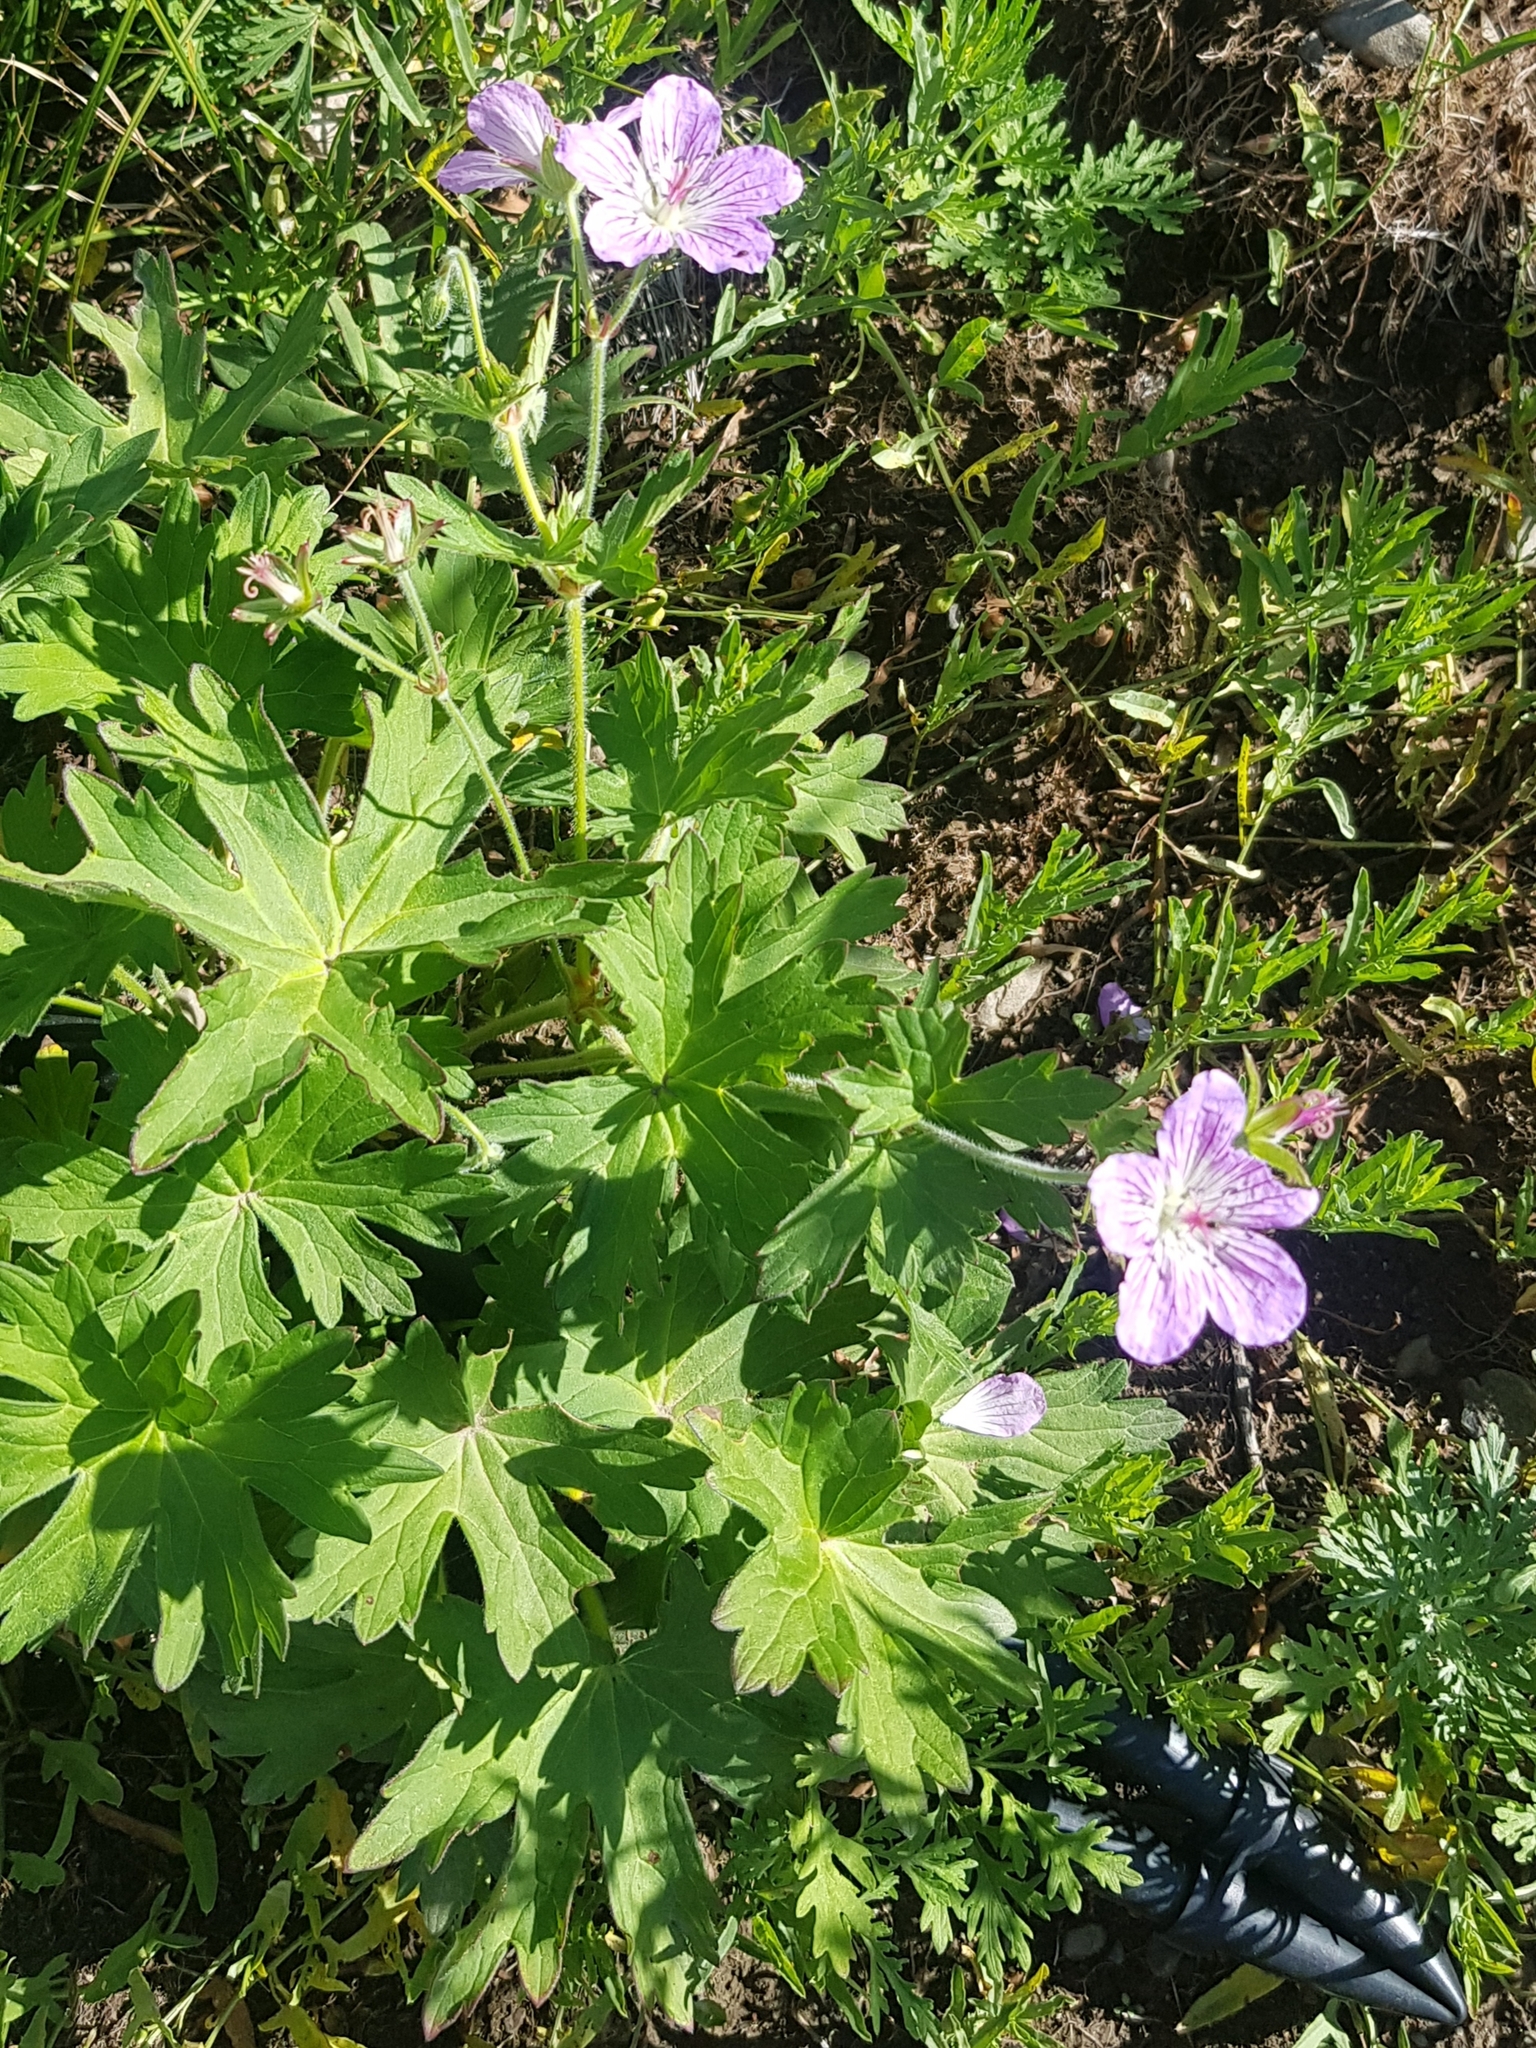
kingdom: Plantae
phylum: Tracheophyta
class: Magnoliopsida
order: Geraniales
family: Geraniaceae
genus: Geranium
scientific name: Geranium wlassovianum
